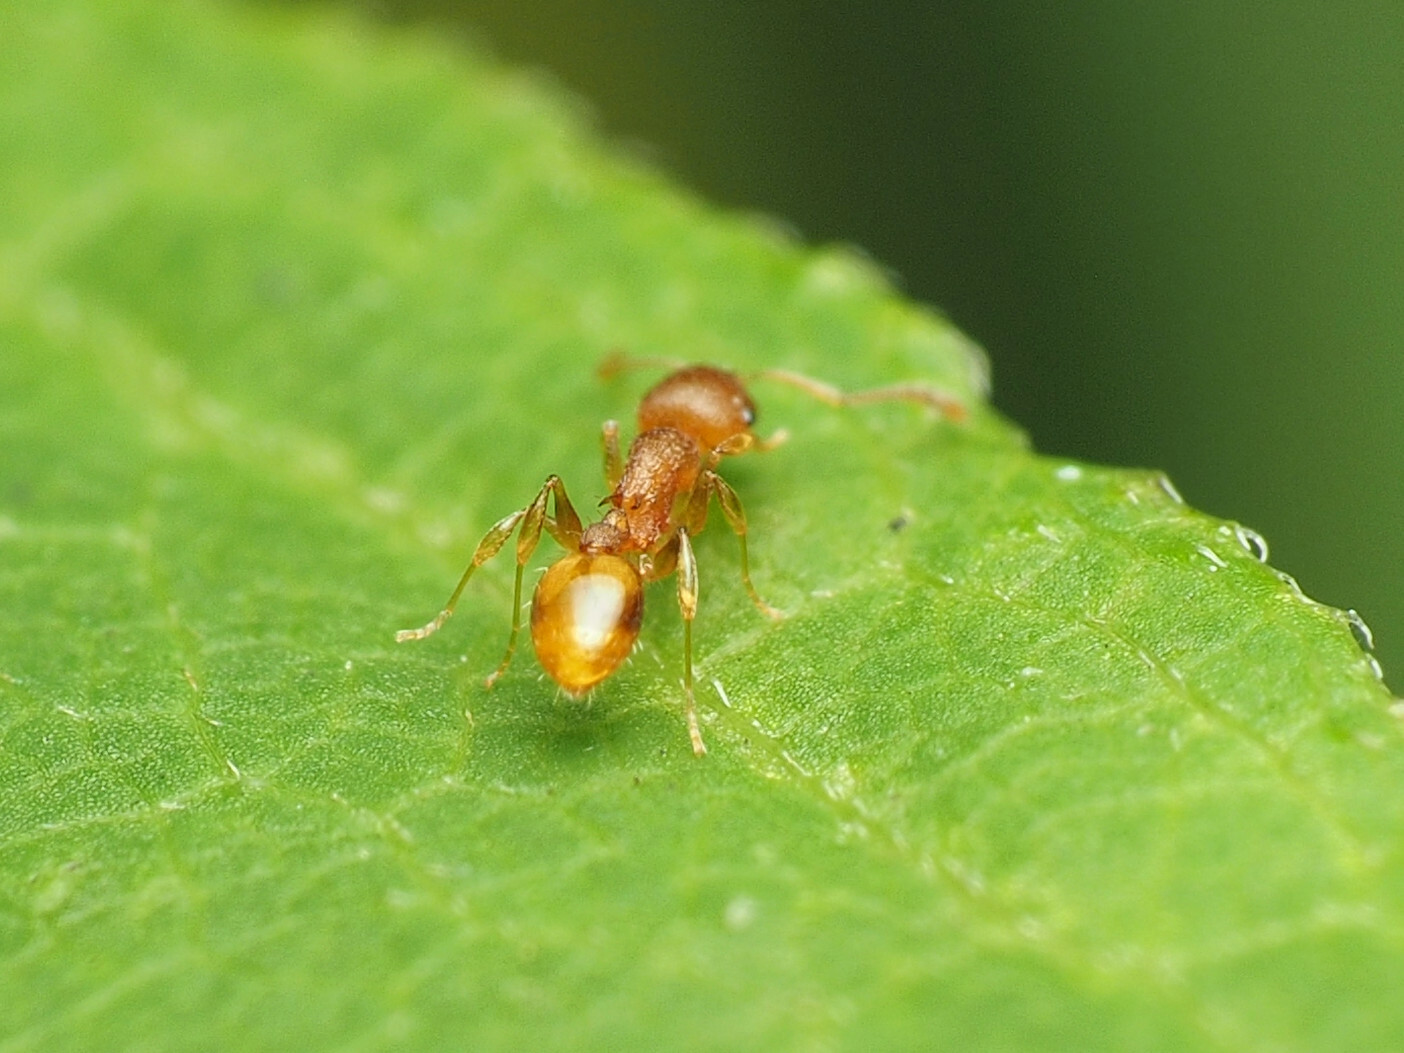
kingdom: Animalia
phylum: Arthropoda
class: Insecta
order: Hymenoptera
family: Formicidae
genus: Temnothorax
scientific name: Temnothorax curvispinosus
